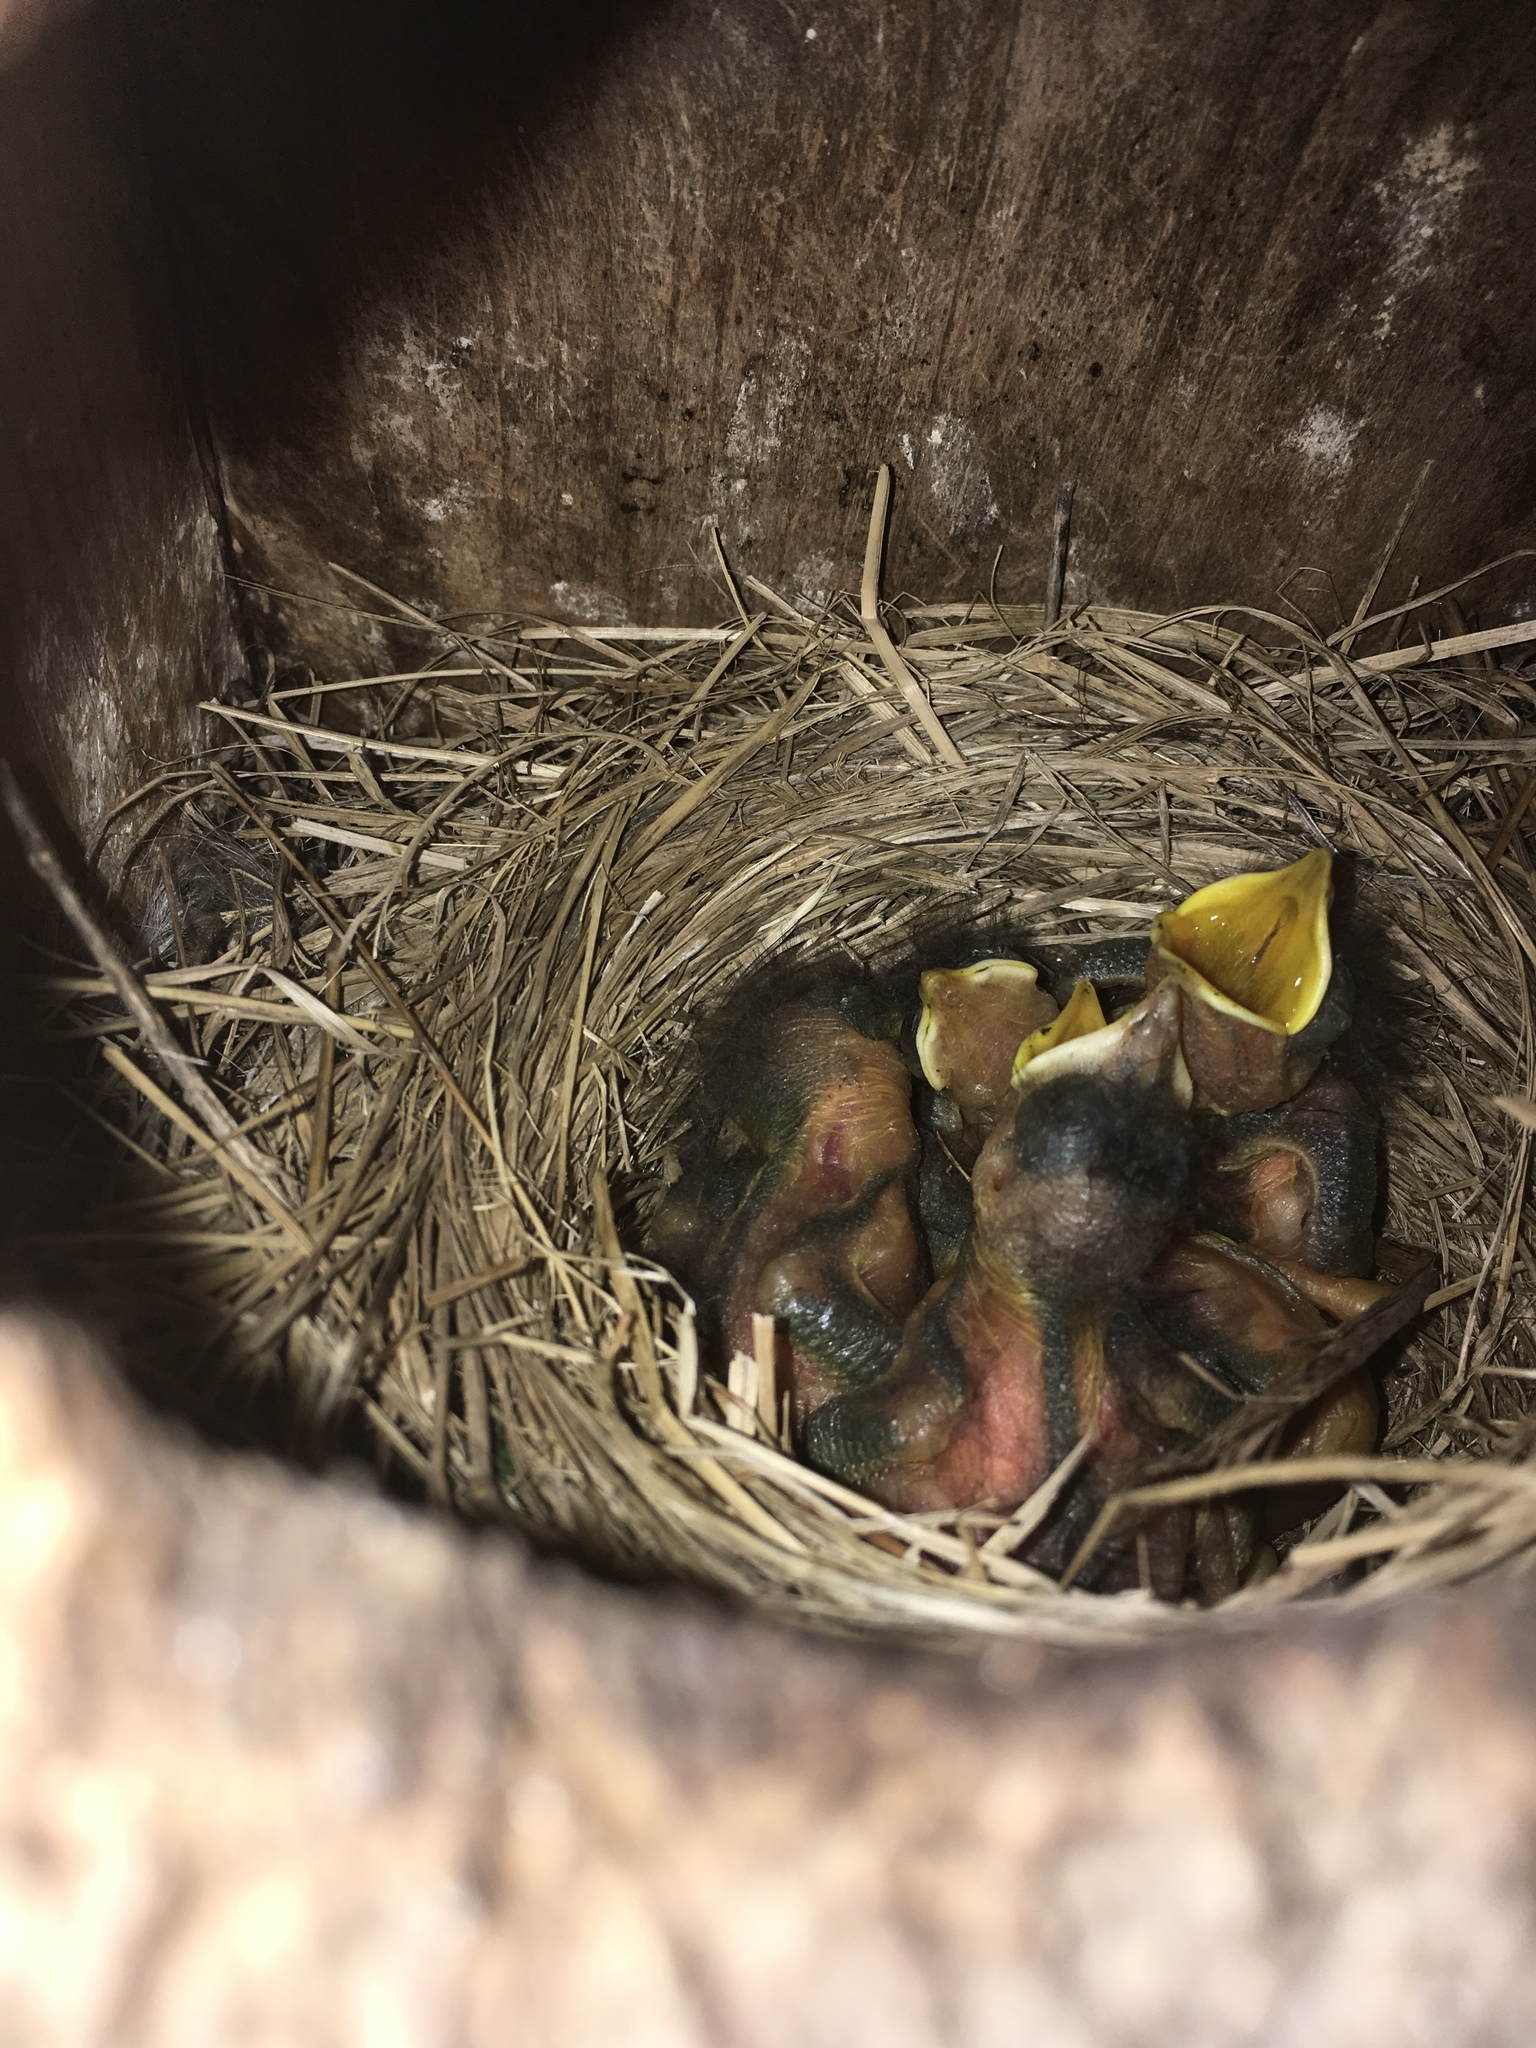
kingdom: Animalia
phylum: Chordata
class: Aves
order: Passeriformes
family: Turdidae
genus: Sialia
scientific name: Sialia sialis
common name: Eastern bluebird
